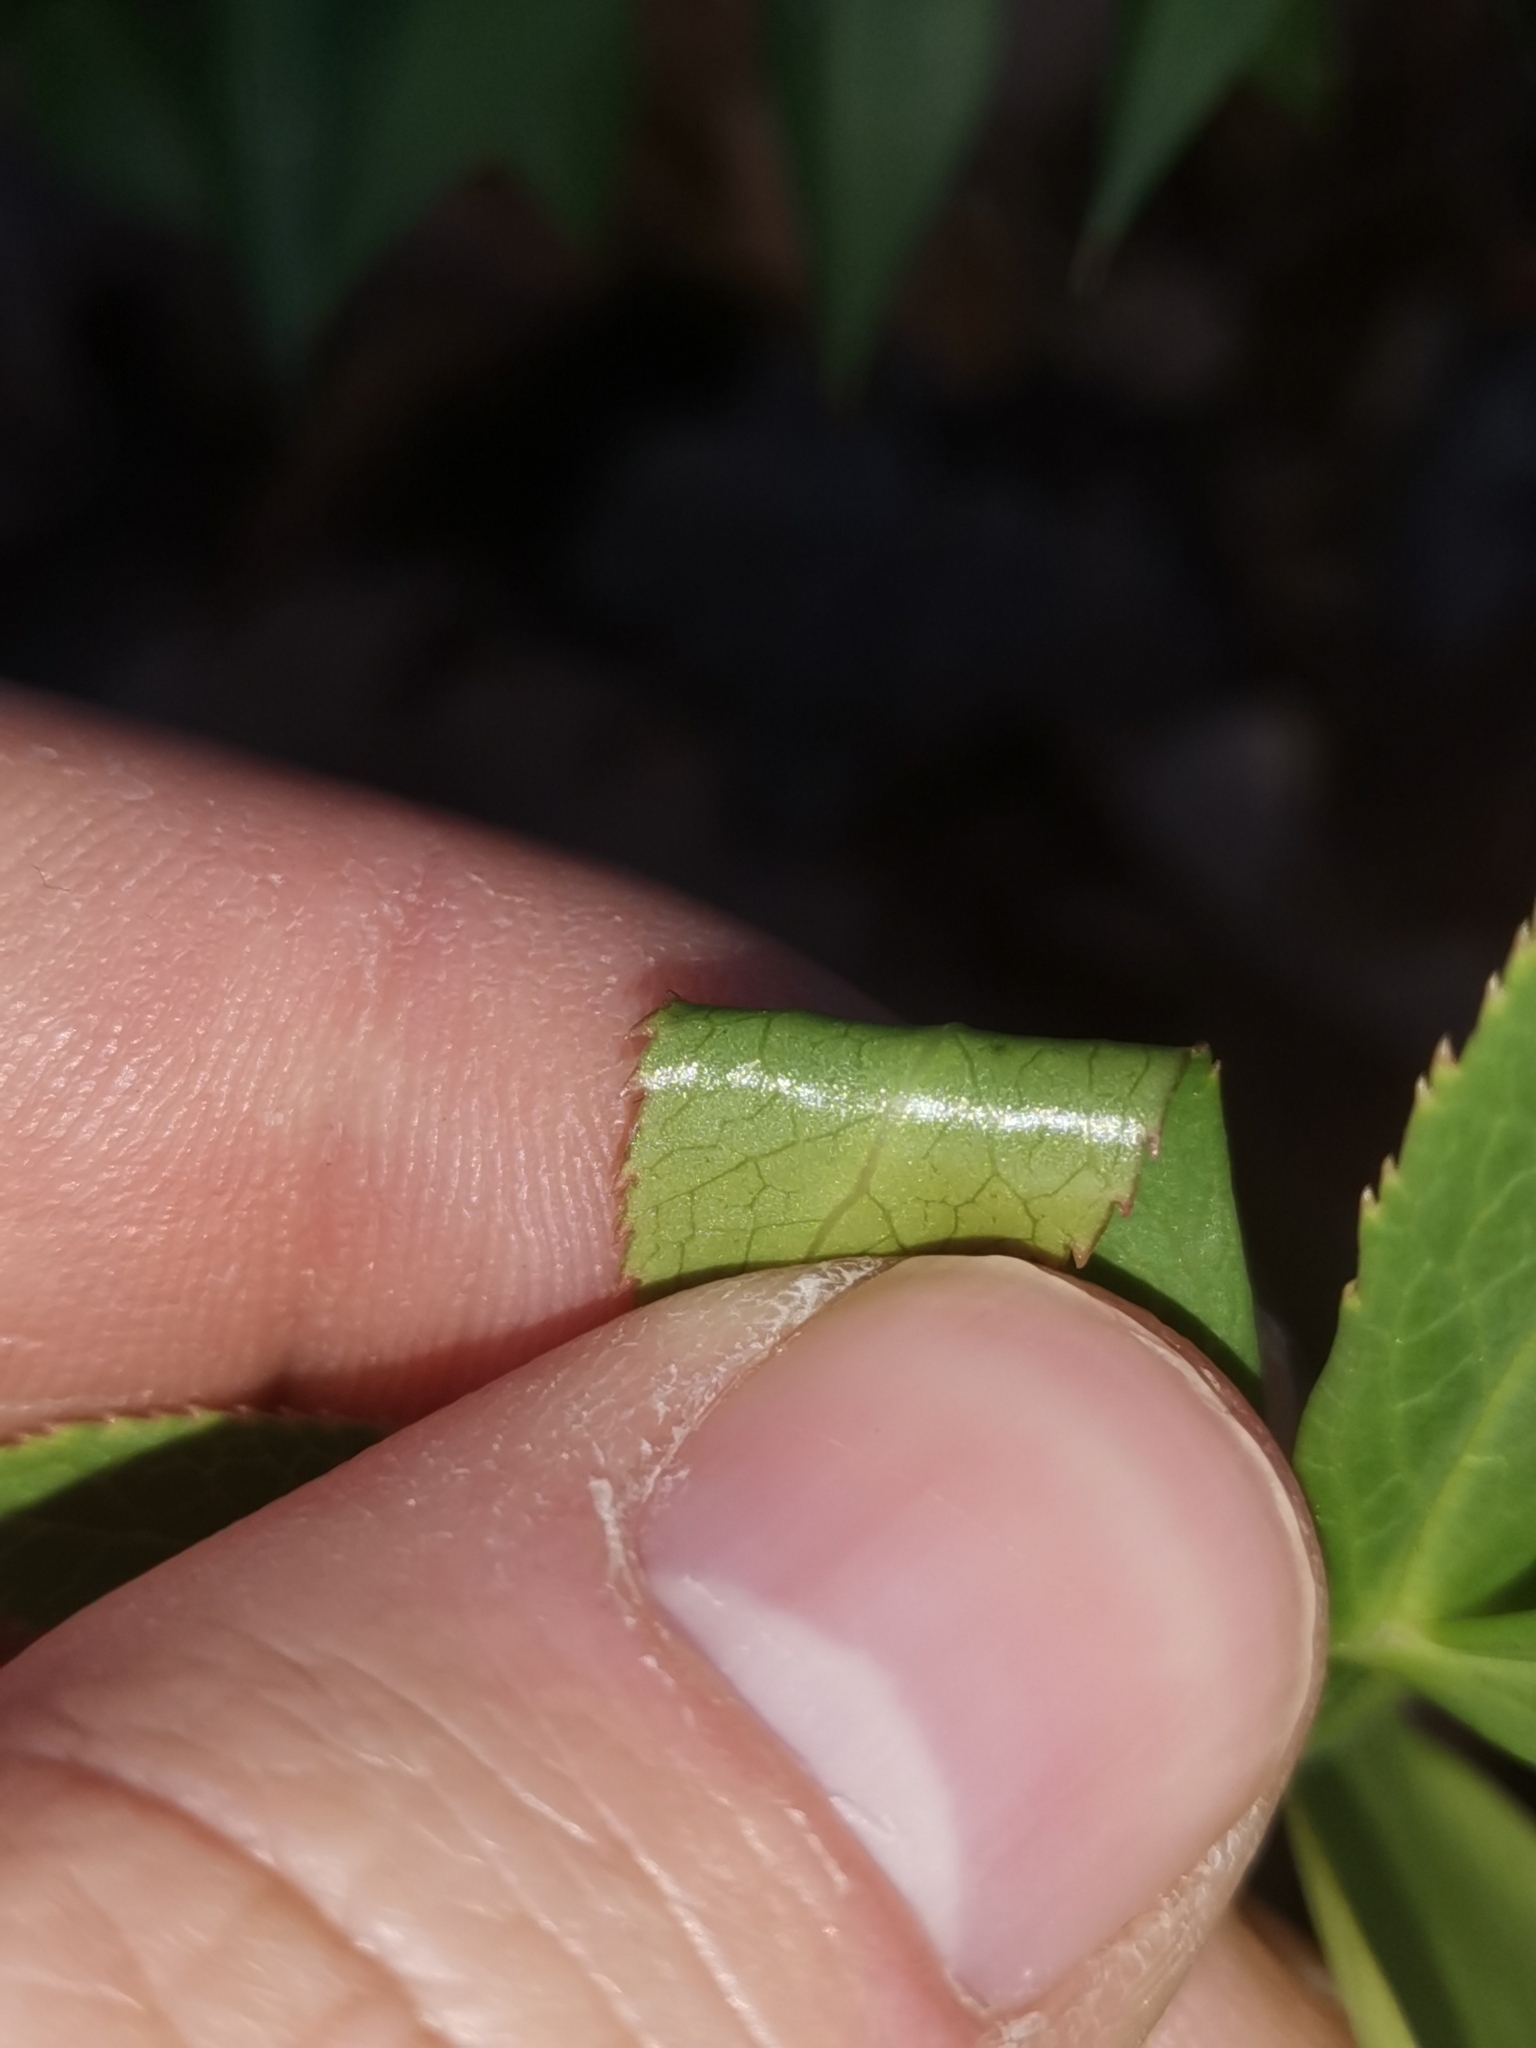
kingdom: Plantae
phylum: Tracheophyta
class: Magnoliopsida
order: Ranunculales
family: Ranunculaceae
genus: Helleborus
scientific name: Helleborus bocconei
